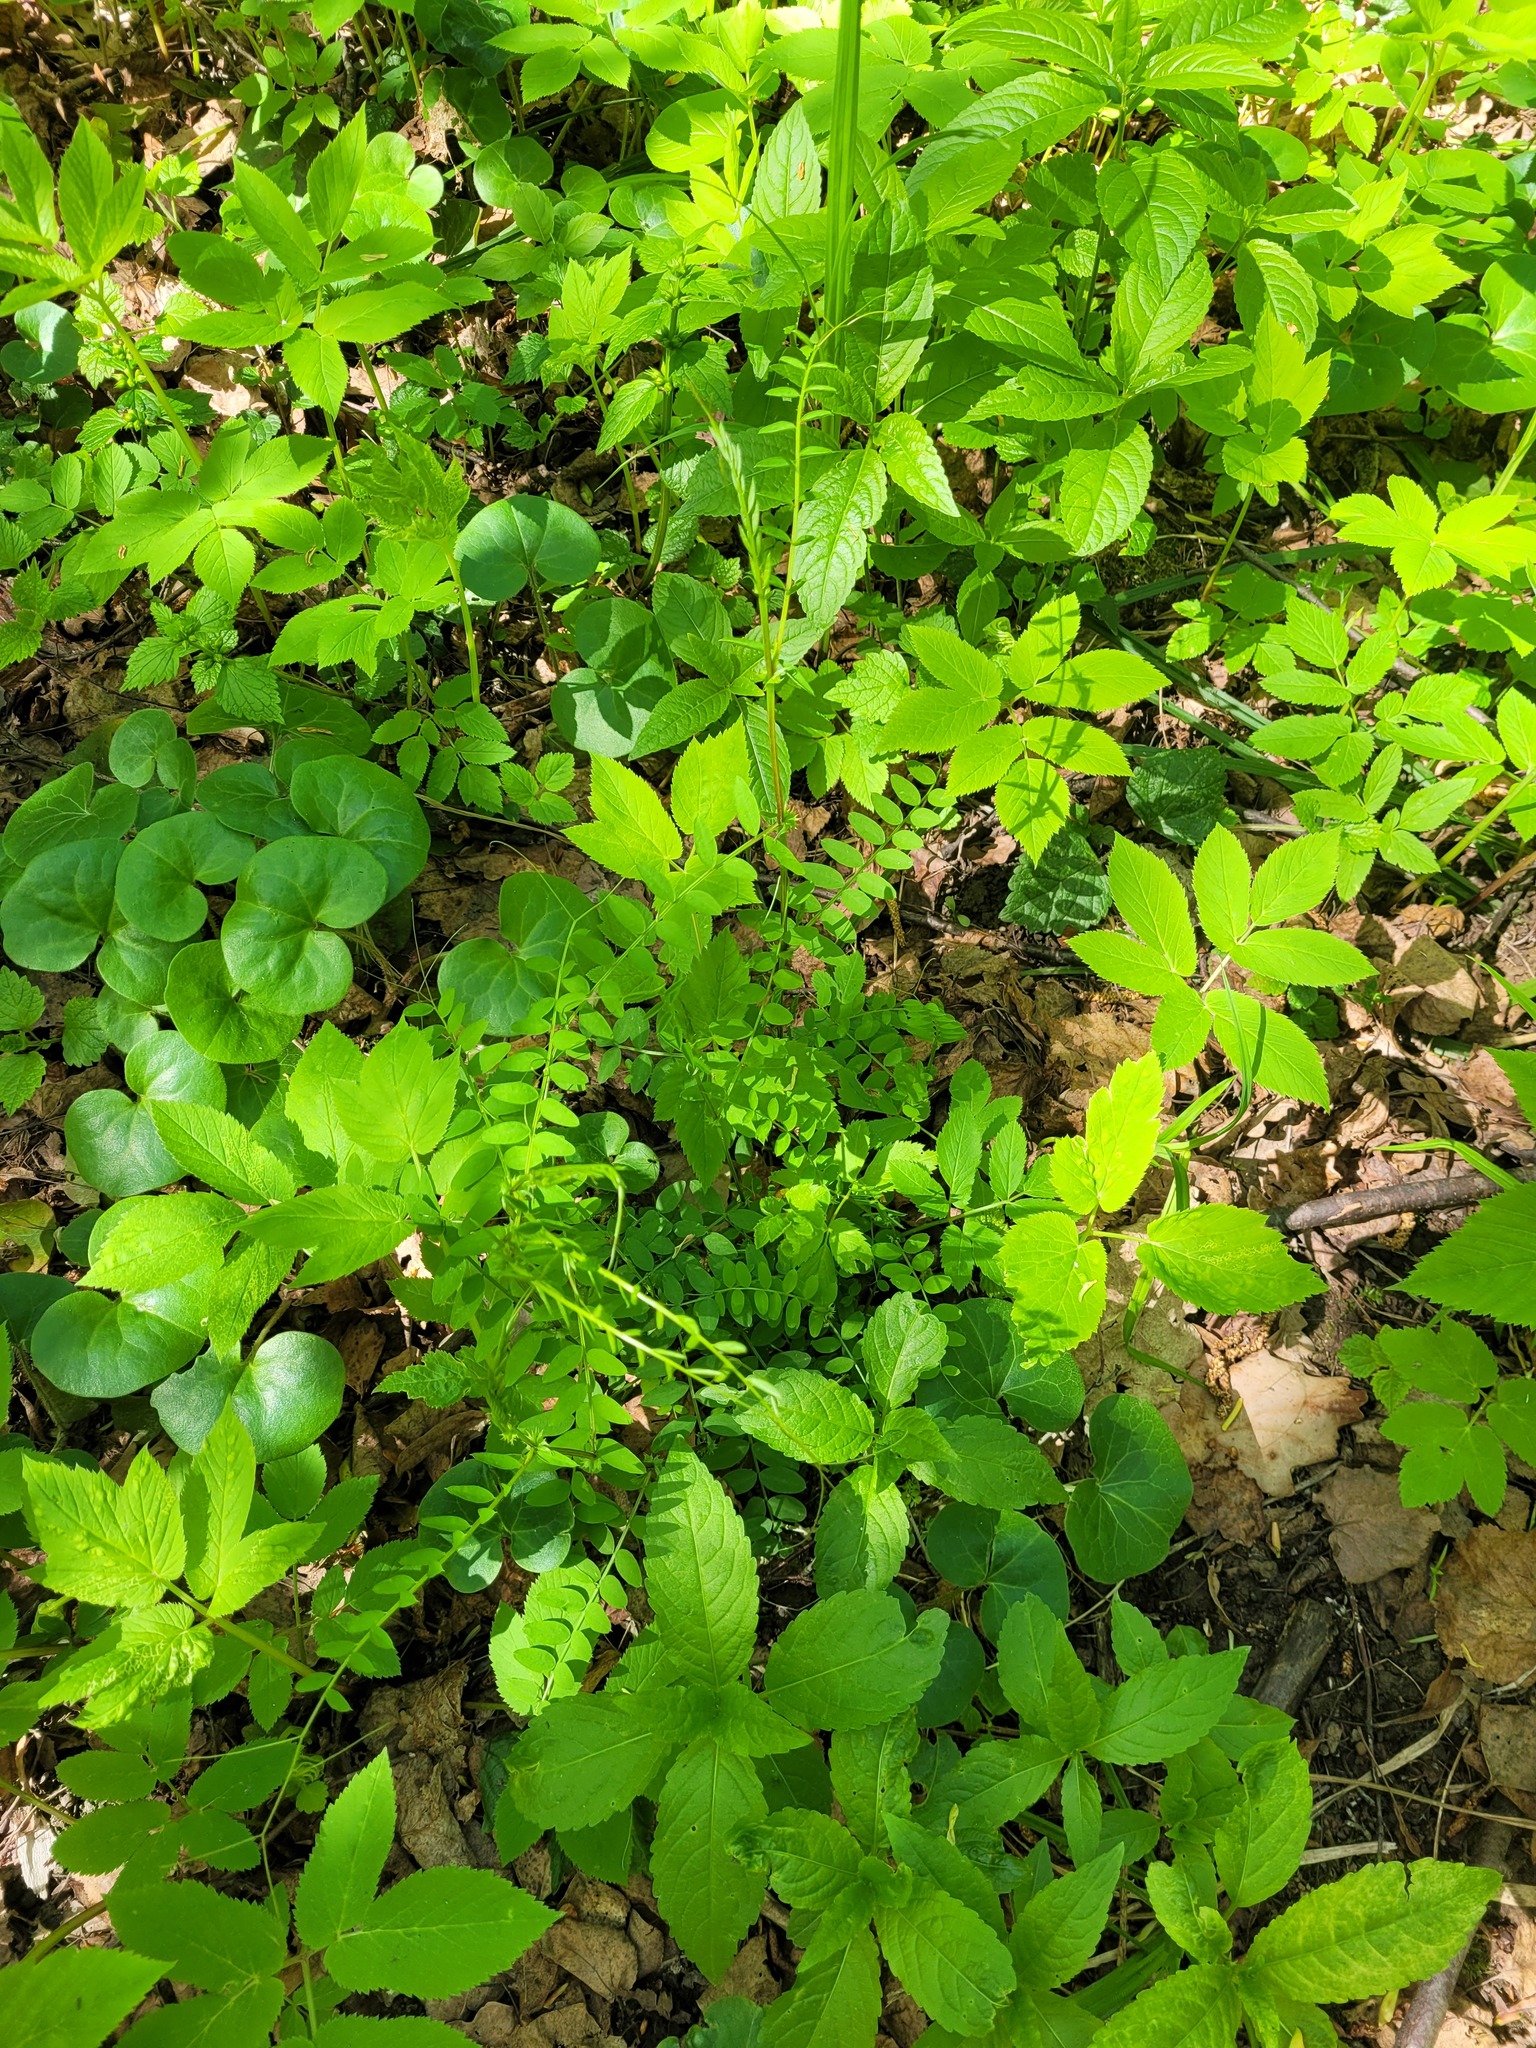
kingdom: Plantae
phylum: Tracheophyta
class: Magnoliopsida
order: Fabales
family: Fabaceae
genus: Vicia
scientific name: Vicia sylvatica
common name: Wood vetch
